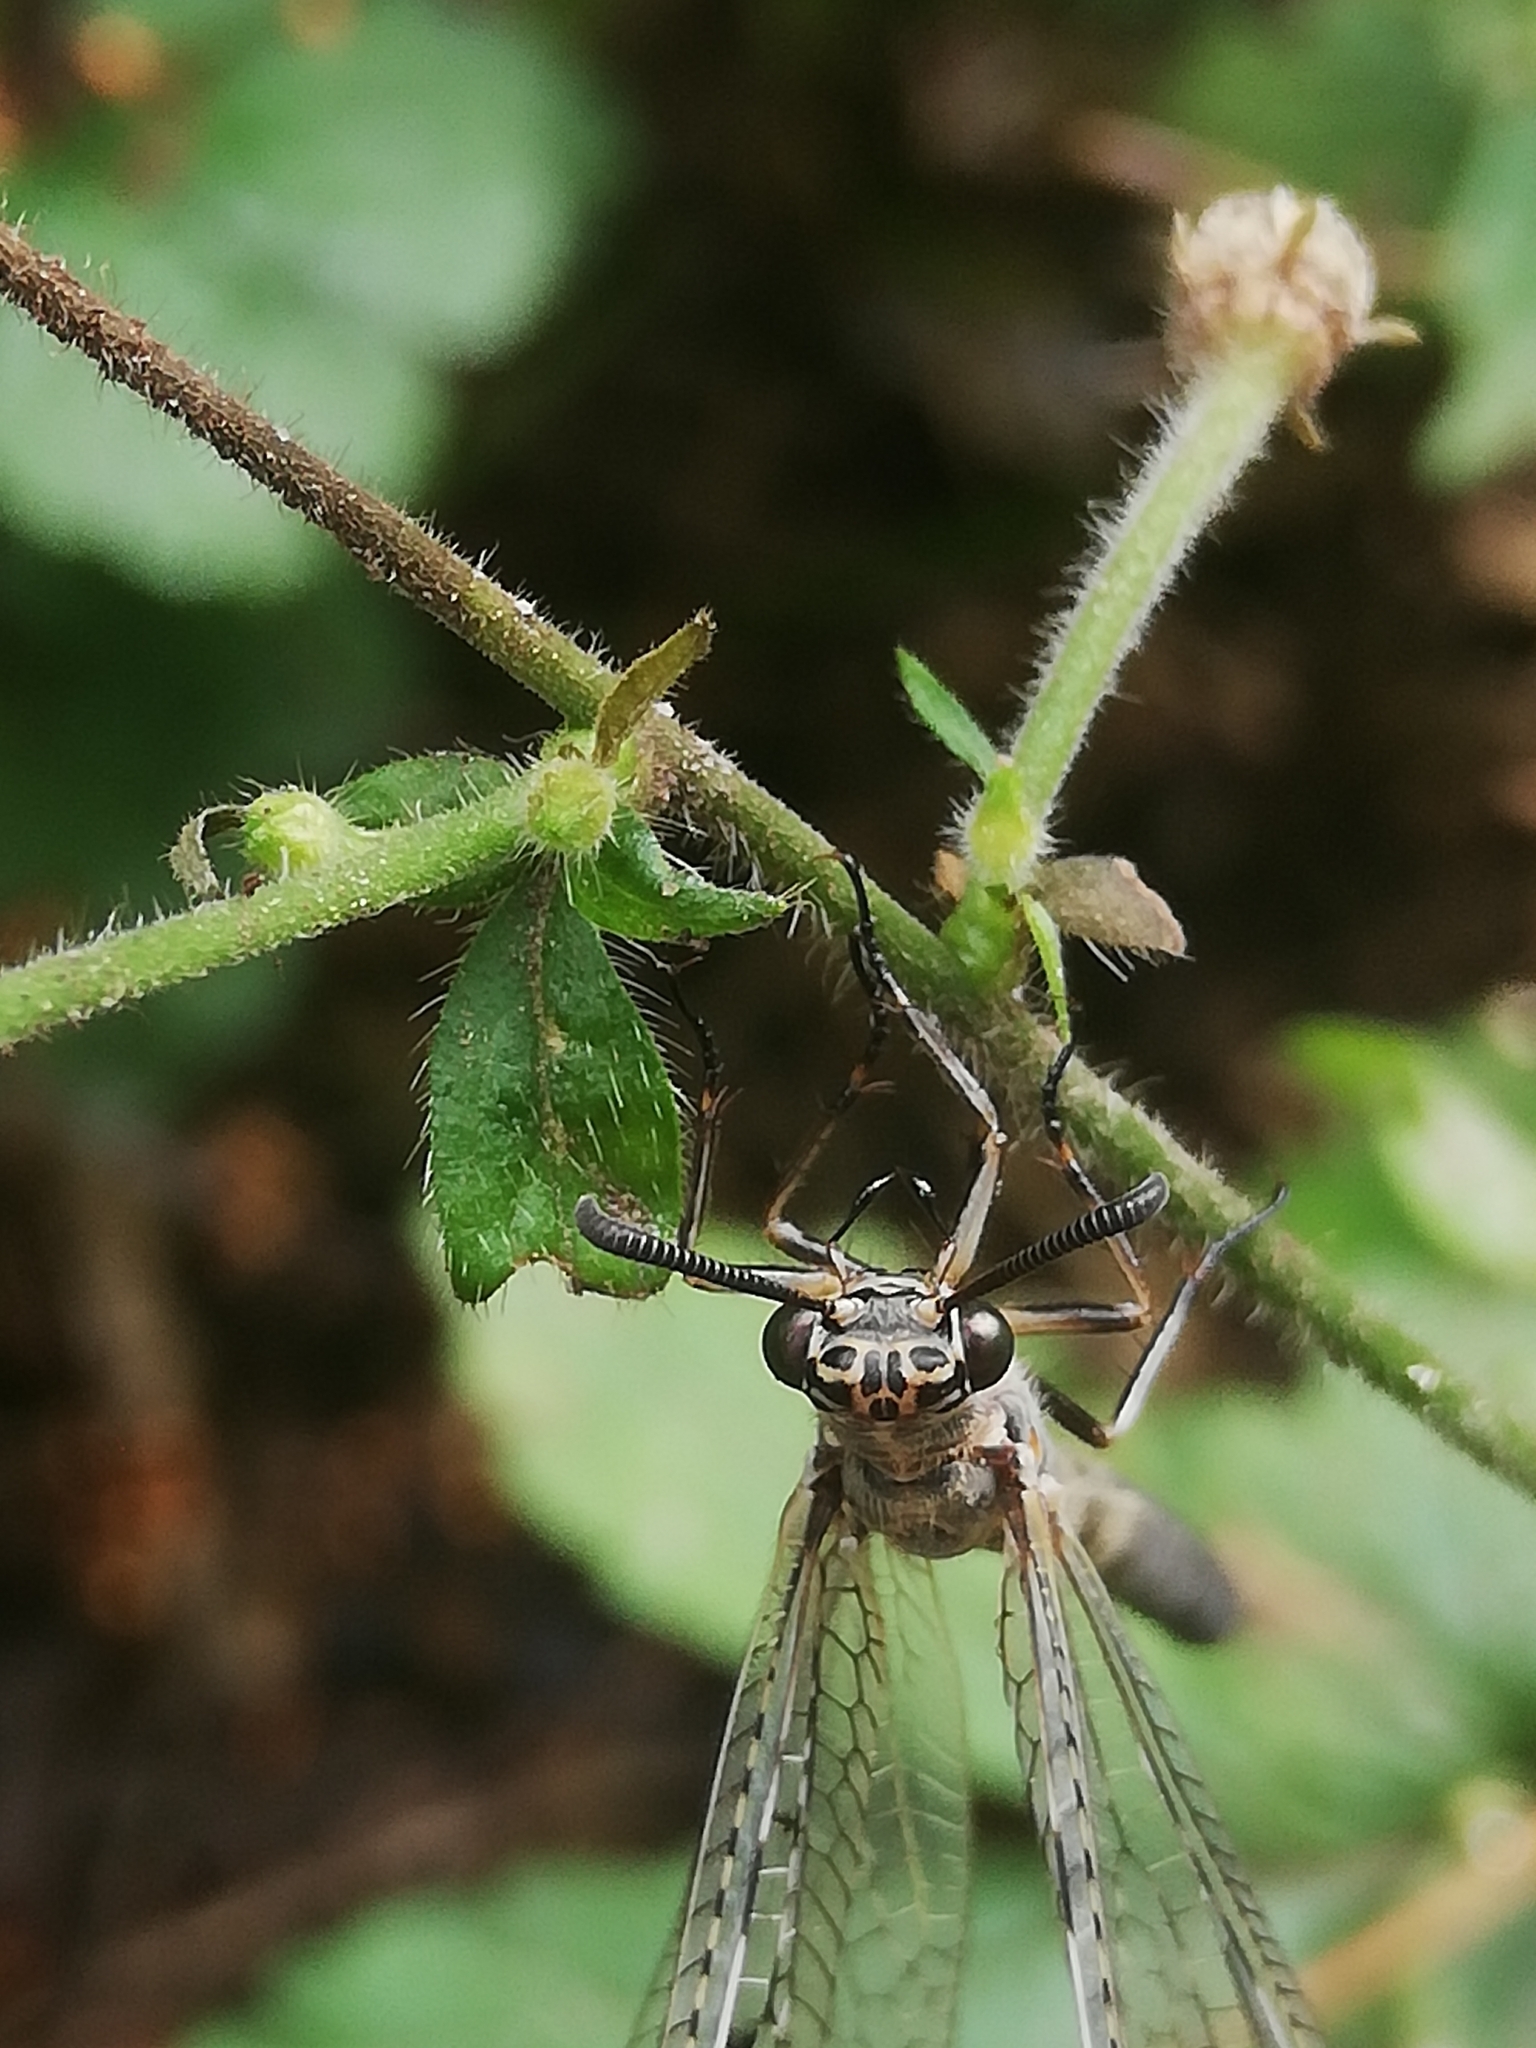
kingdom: Animalia
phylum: Arthropoda
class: Insecta
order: Neuroptera
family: Myrmeleontidae
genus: Euroleon
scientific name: Euroleon nostras
